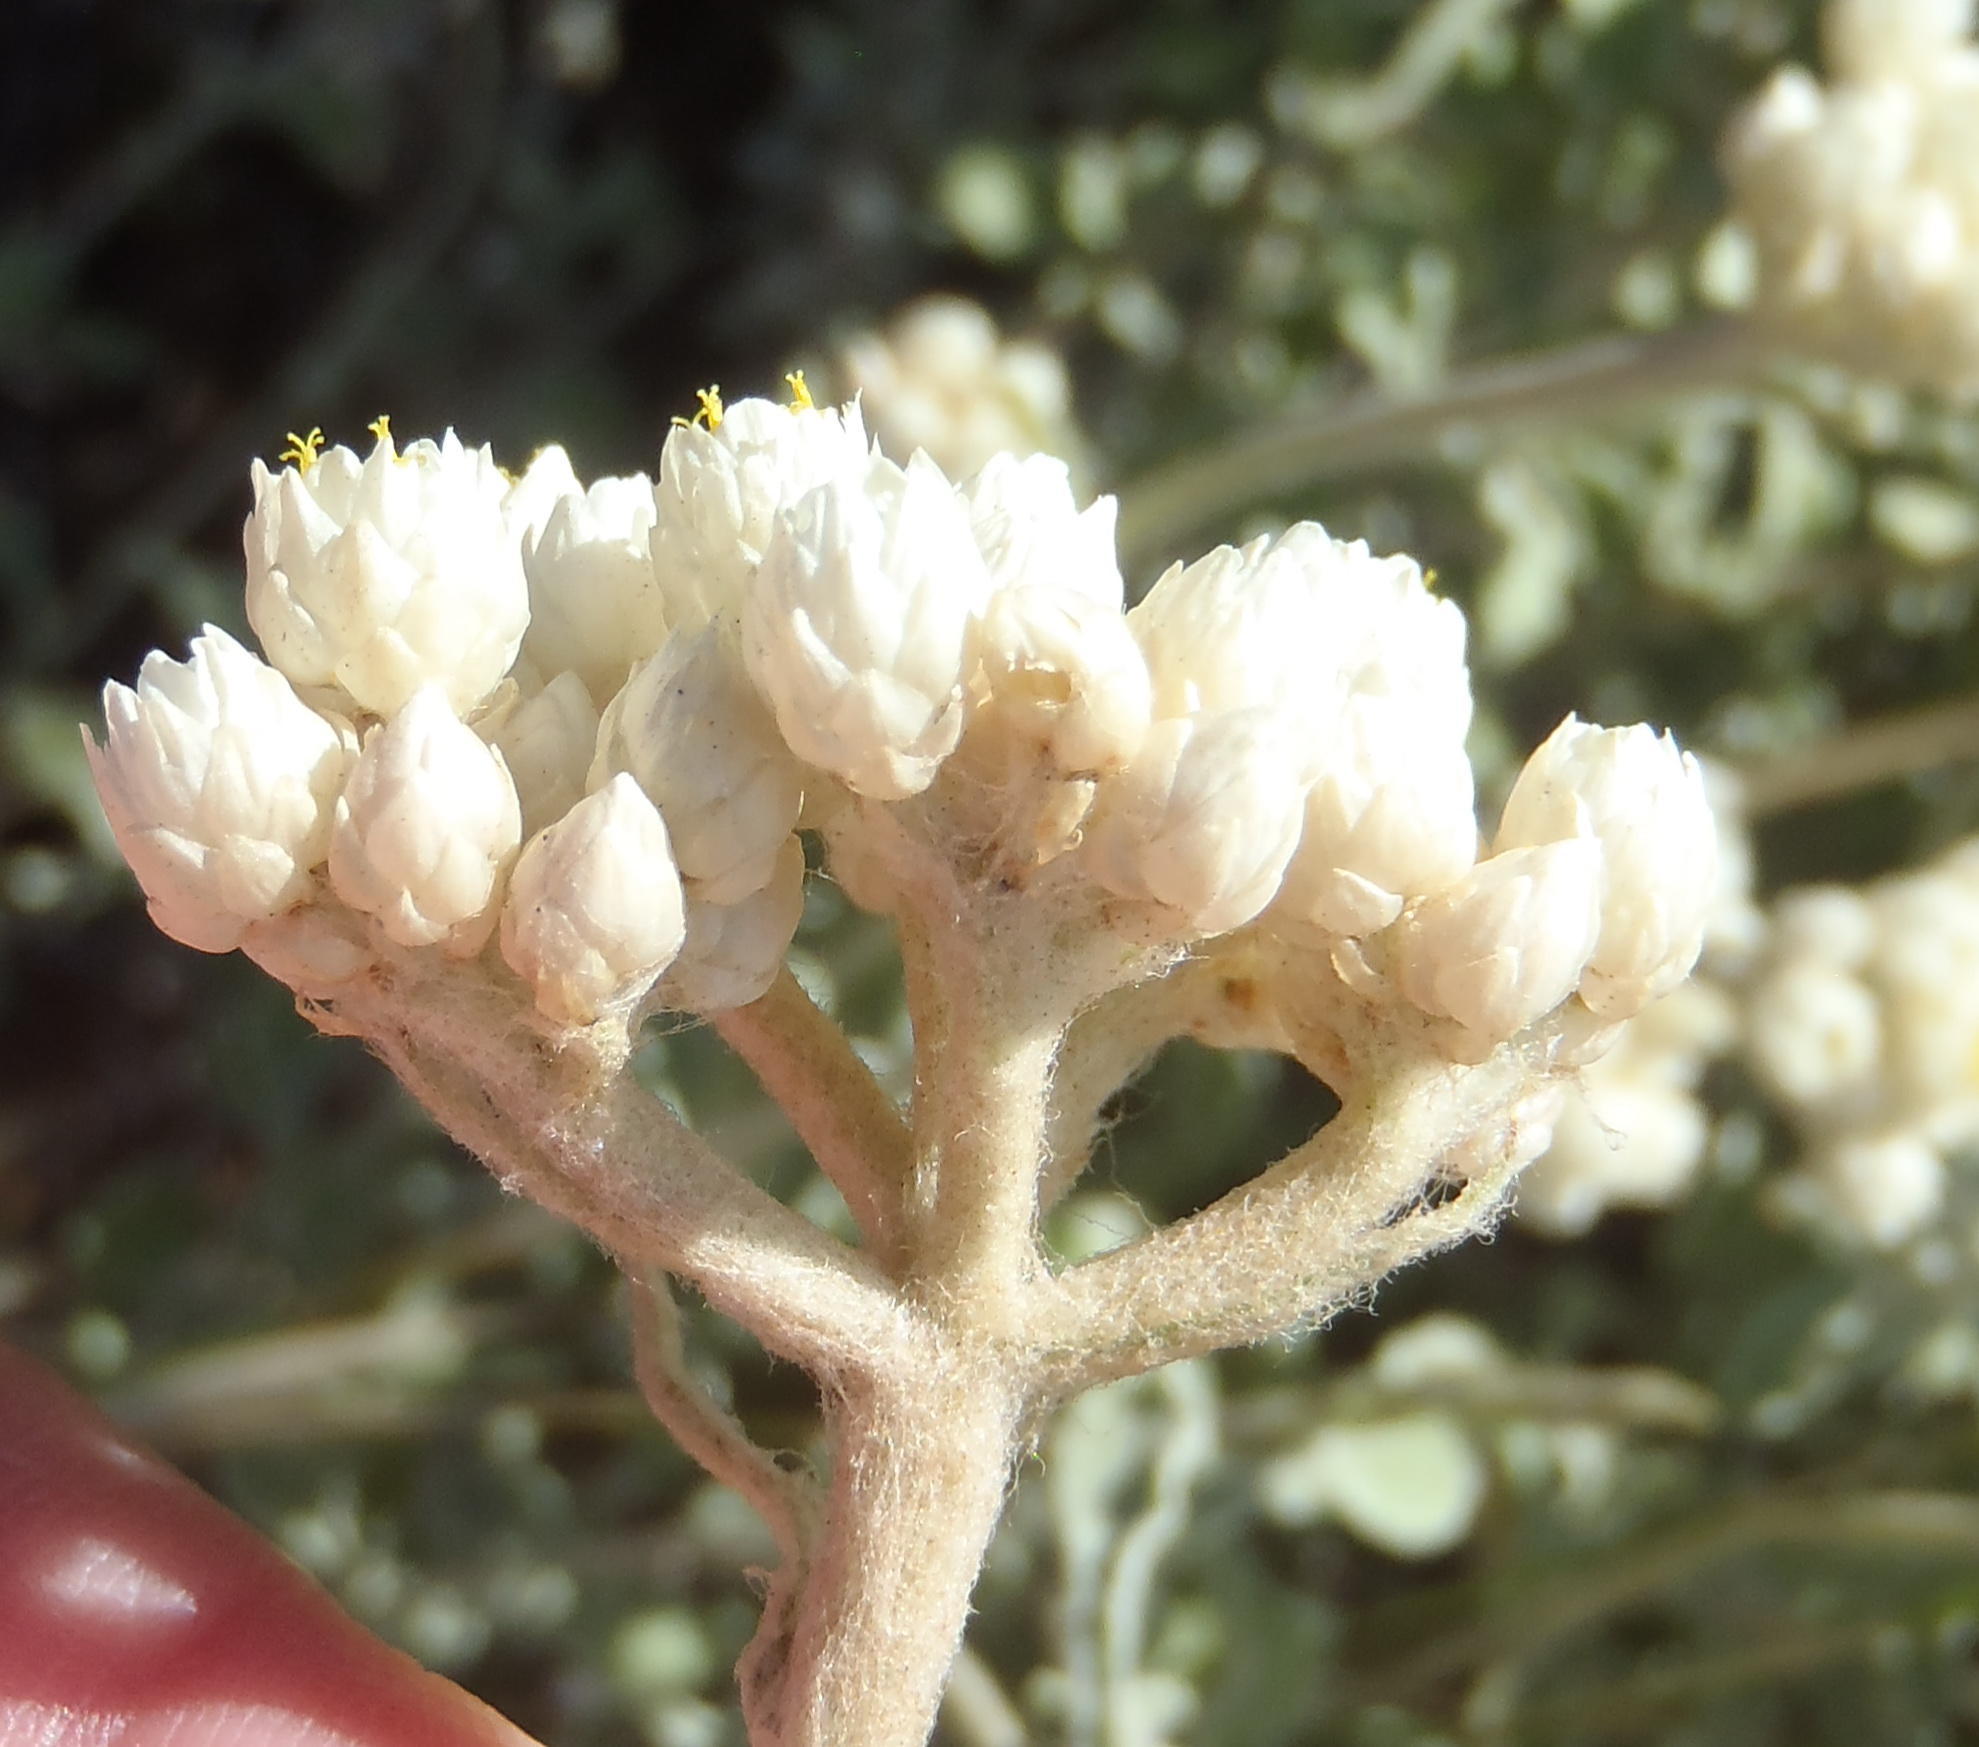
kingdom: Plantae
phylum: Tracheophyta
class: Magnoliopsida
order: Asterales
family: Asteraceae
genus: Helichrysum
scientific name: Helichrysum pandurifolium
